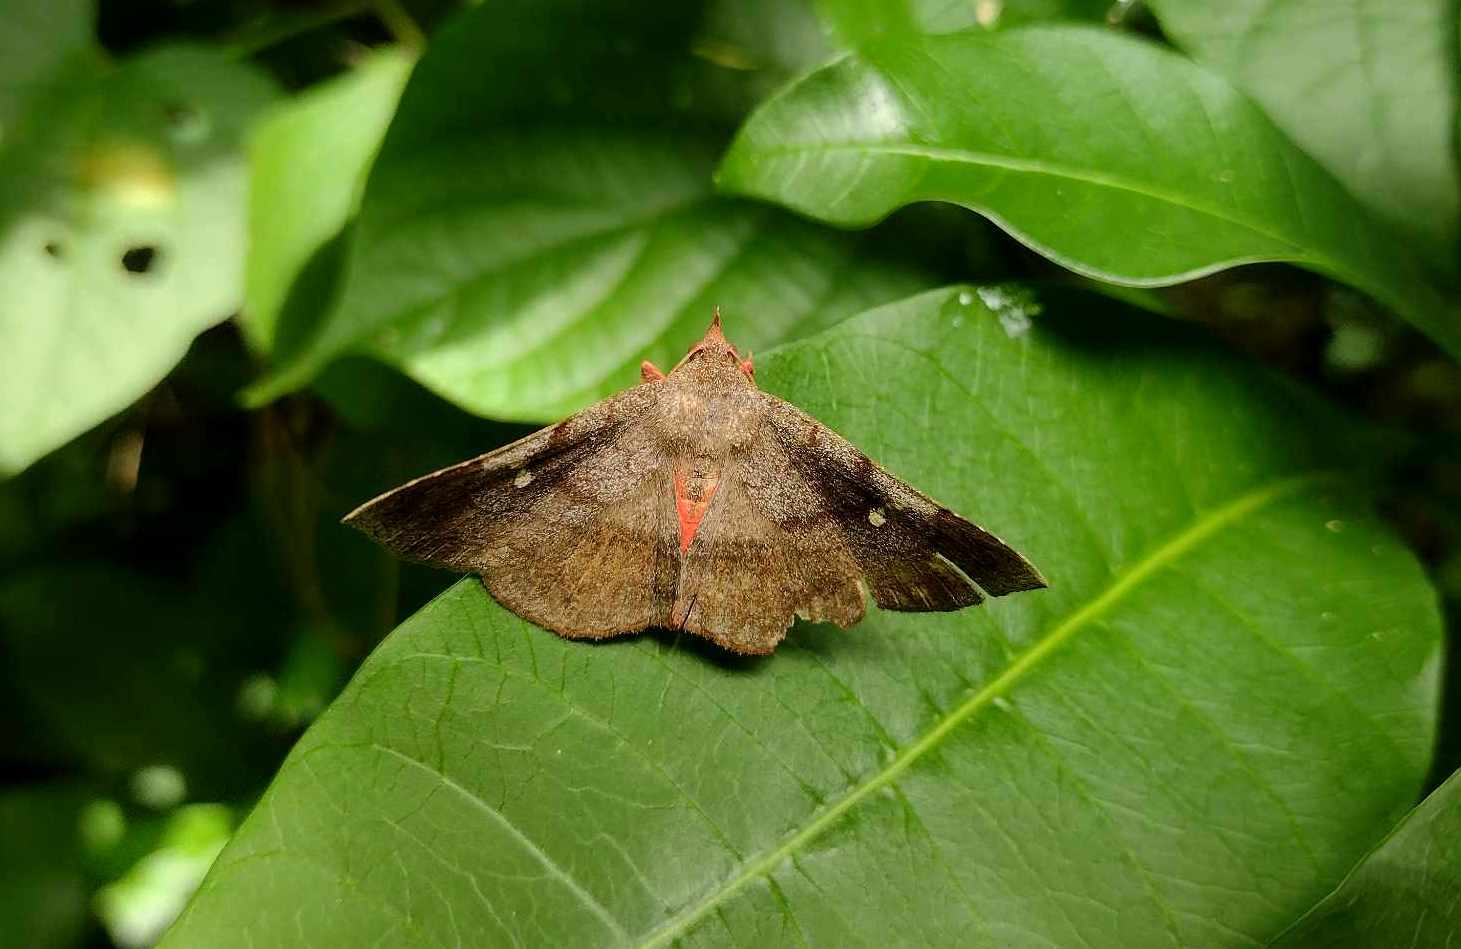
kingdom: Animalia
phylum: Arthropoda
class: Insecta
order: Lepidoptera
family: Erebidae
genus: Azeta
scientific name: Azeta melanea
